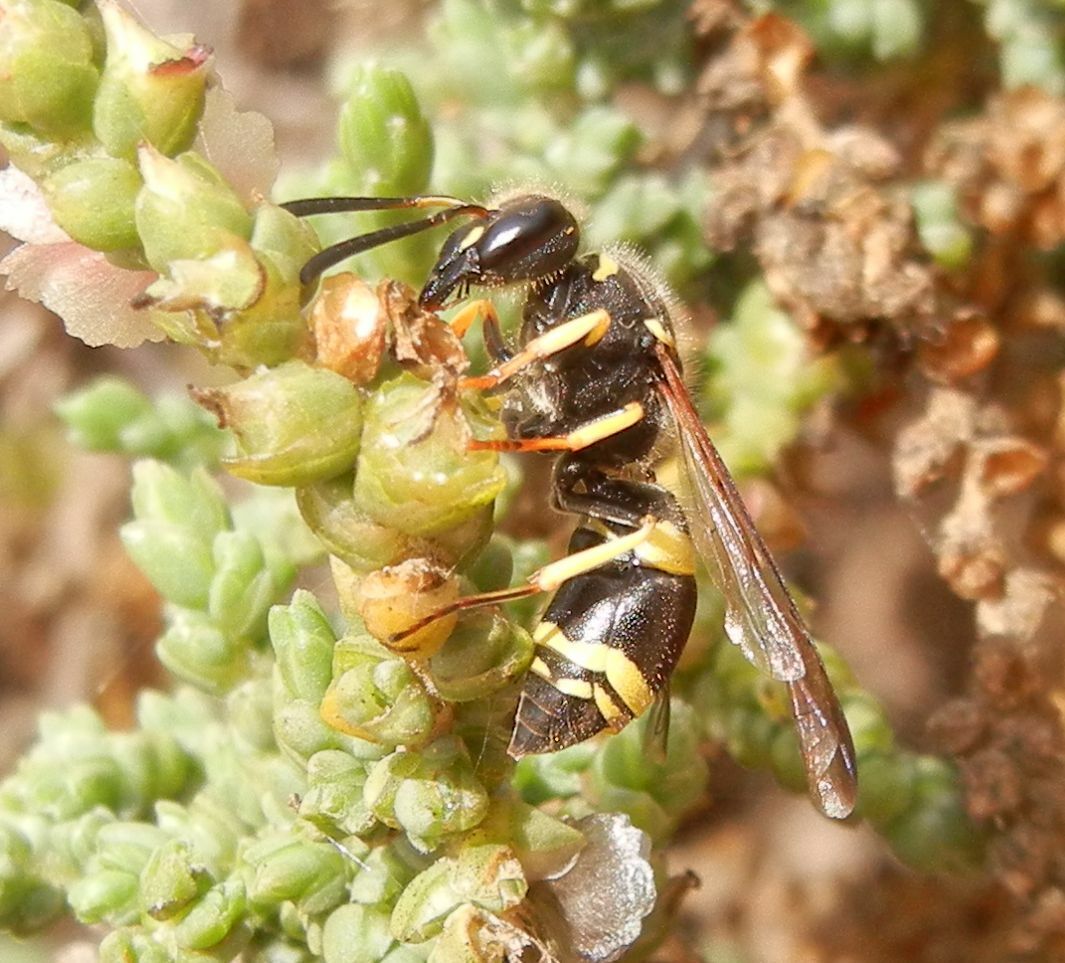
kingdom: Animalia
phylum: Arthropoda
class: Insecta
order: Hymenoptera
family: Vespidae
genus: Ancistrocerus
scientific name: Ancistrocerus biphaleratus
